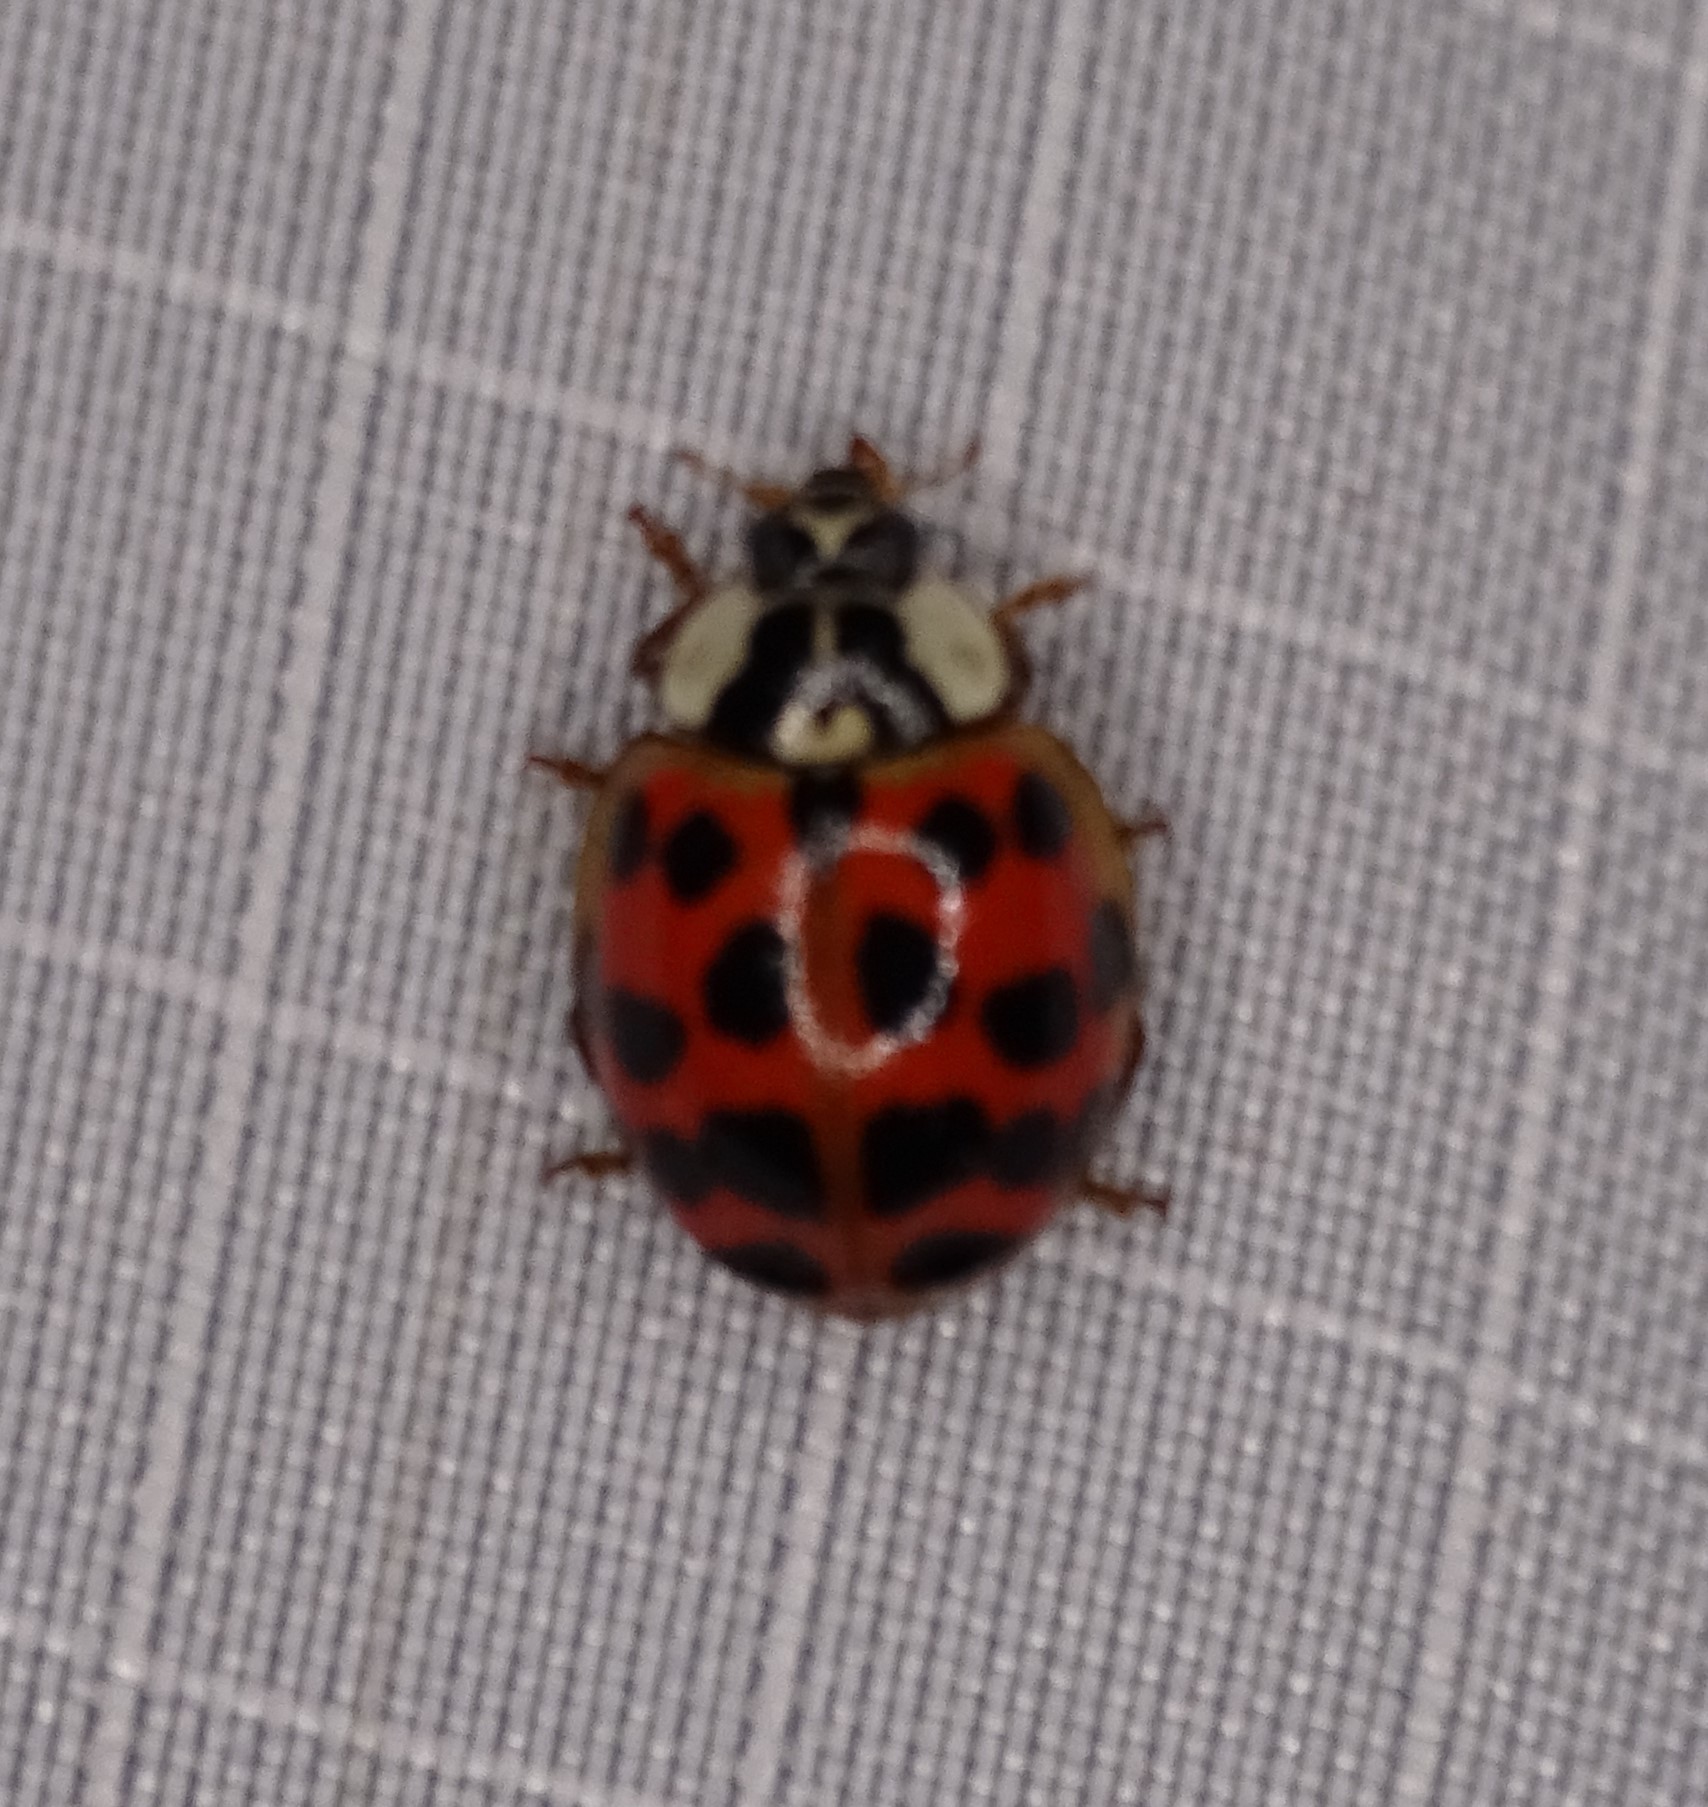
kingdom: Animalia
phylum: Arthropoda
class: Insecta
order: Coleoptera
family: Coccinellidae
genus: Harmonia
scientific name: Harmonia axyridis
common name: Harlequin ladybird
